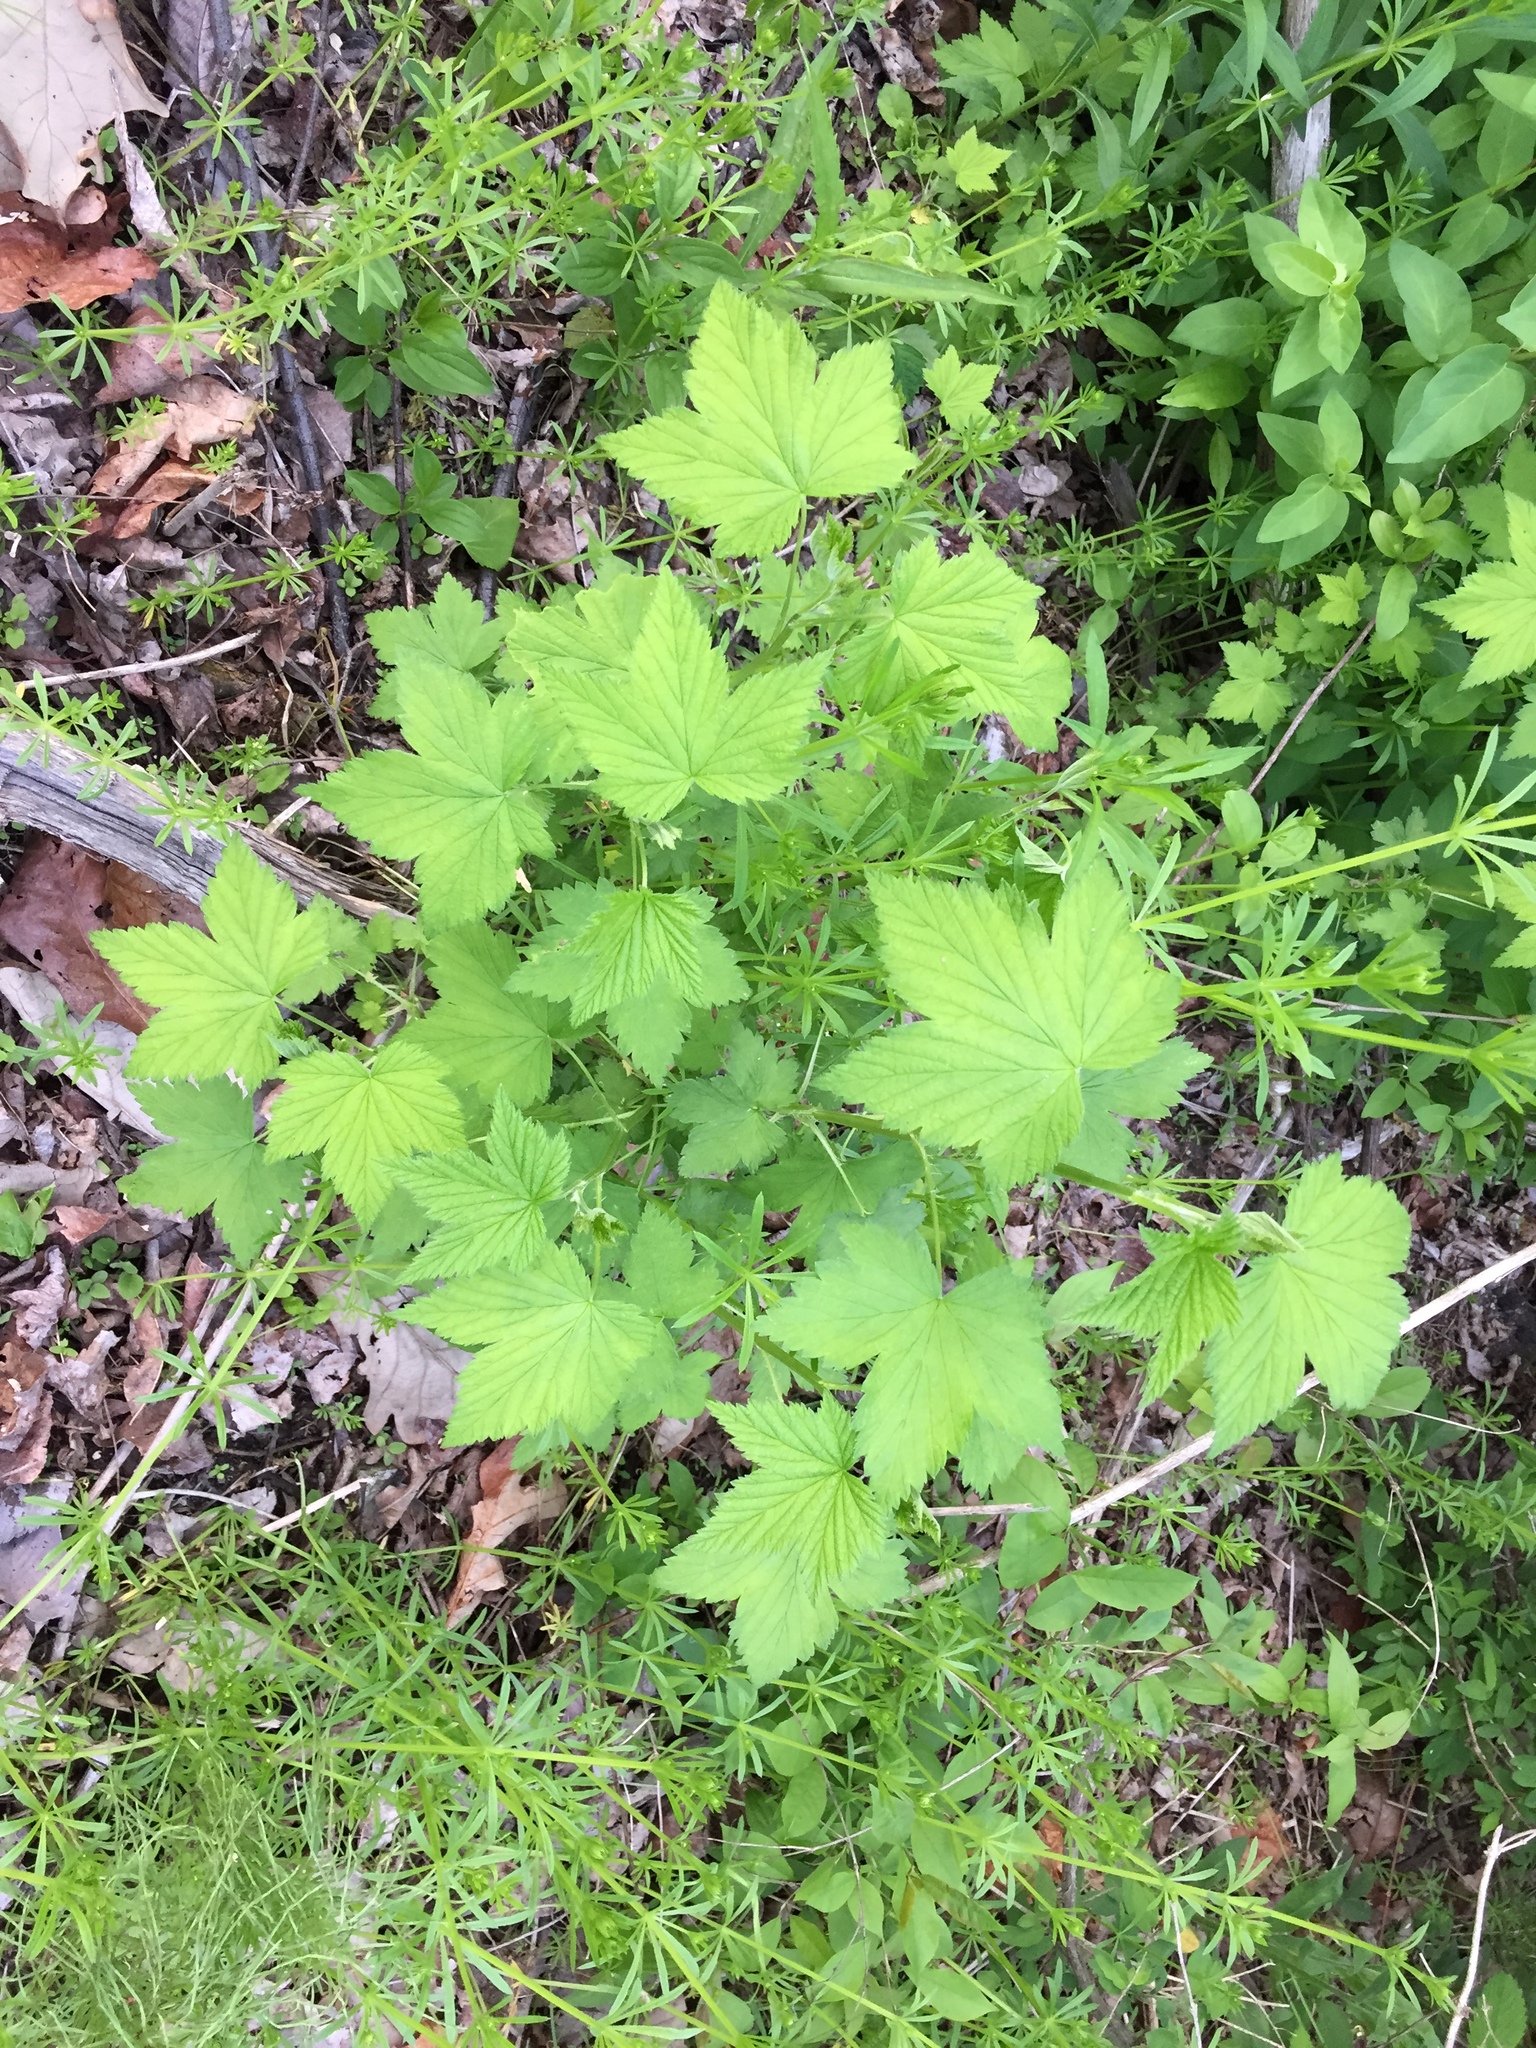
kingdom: Plantae
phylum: Tracheophyta
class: Magnoliopsida
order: Rosales
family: Rosaceae
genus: Rubus
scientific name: Rubus odoratus
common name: Purple-flowered raspberry
